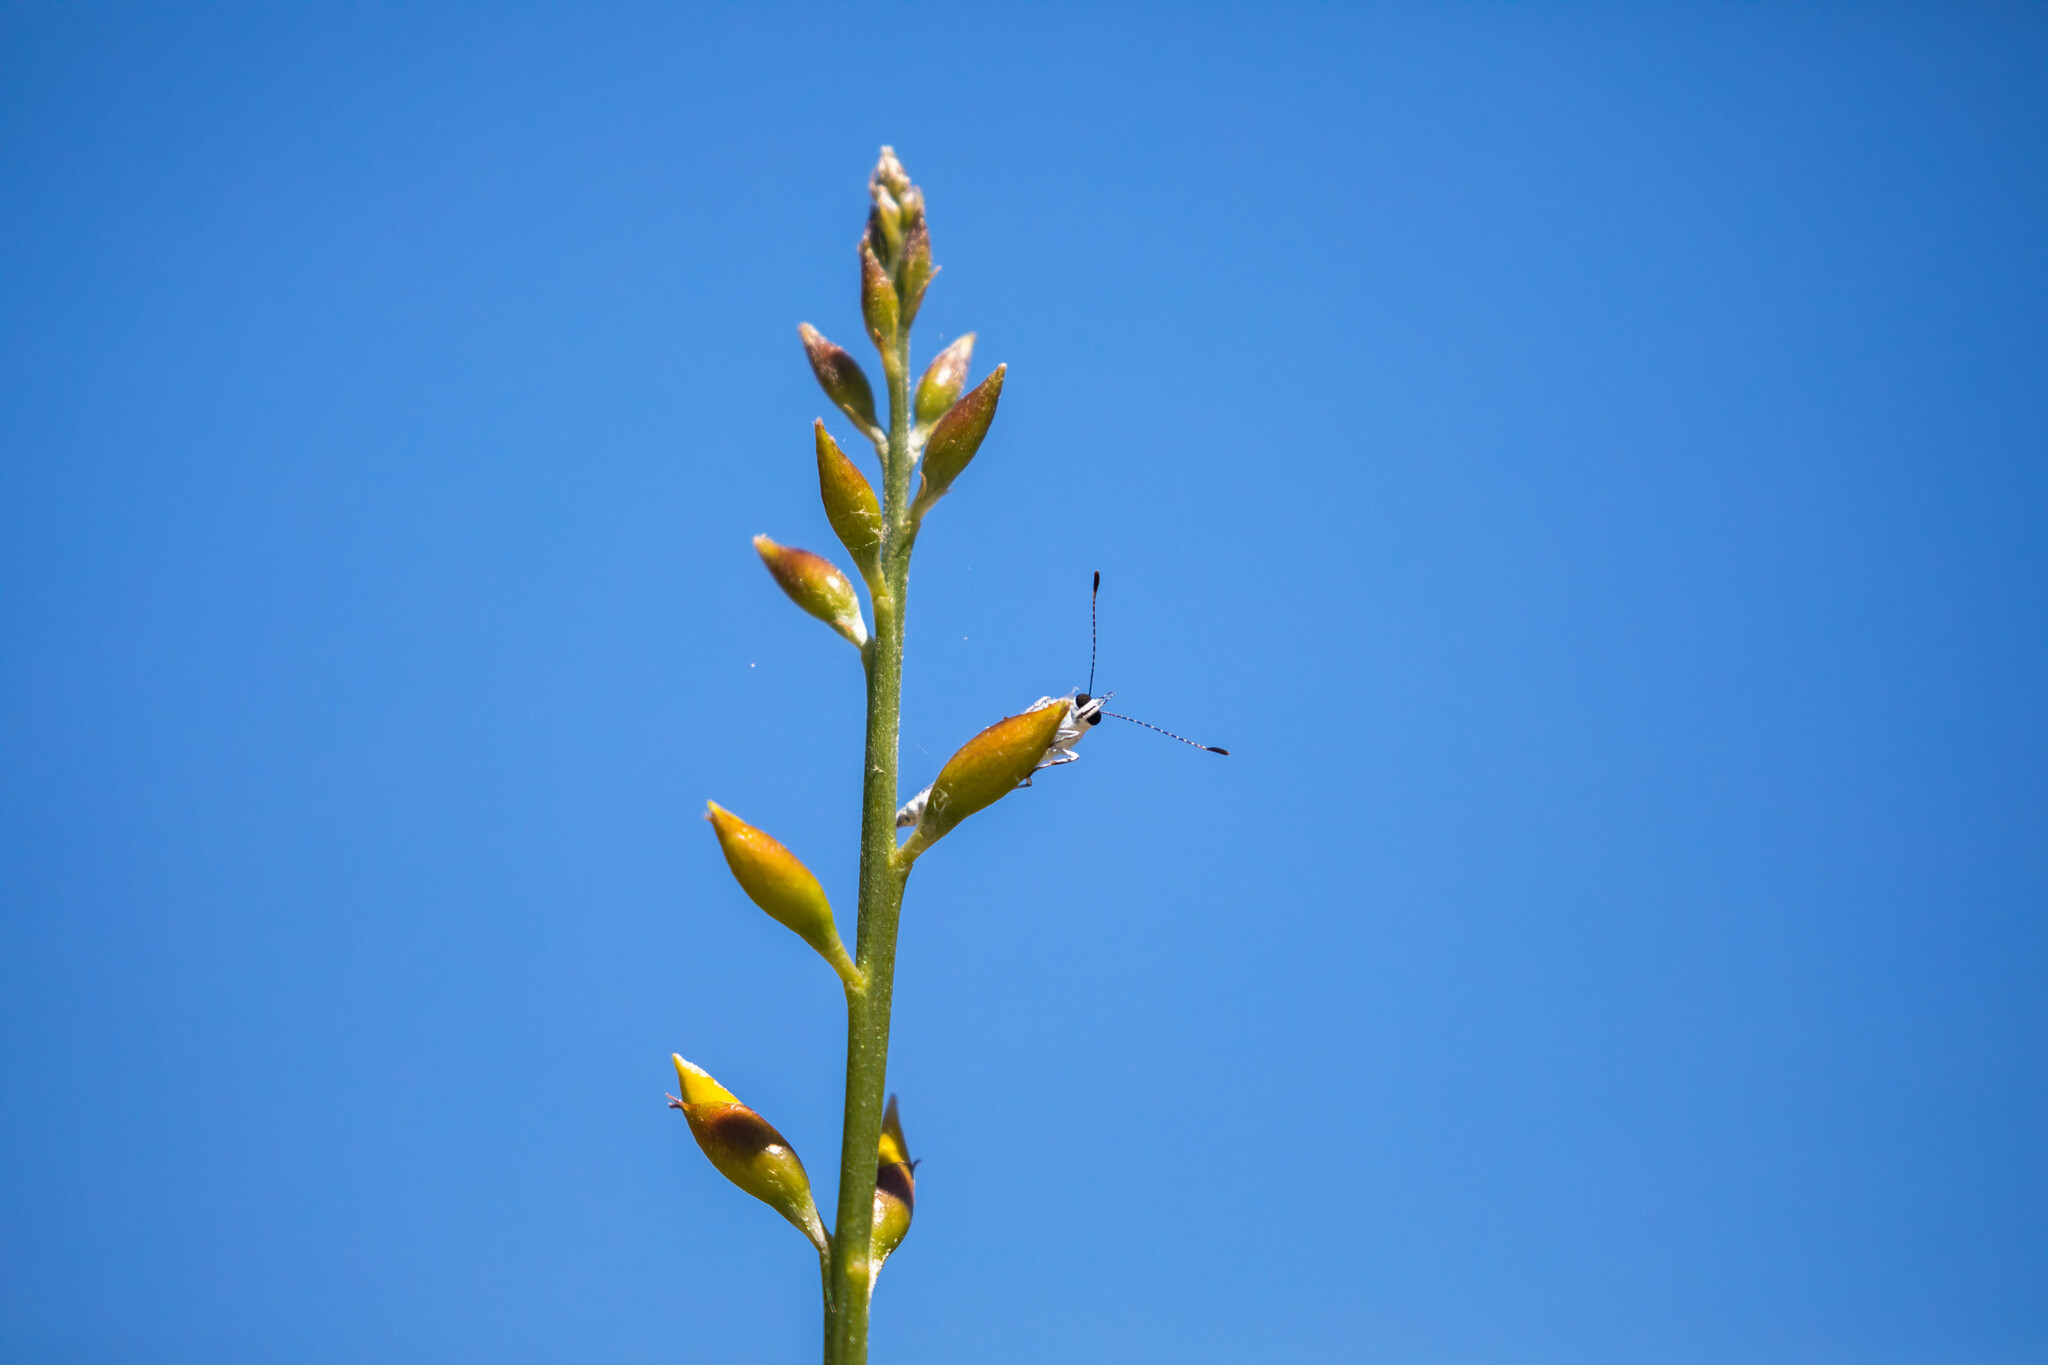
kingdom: Animalia
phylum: Arthropoda
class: Insecta
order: Lepidoptera
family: Lycaenidae
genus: Celastrina
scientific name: Celastrina argiolus
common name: Holly blue
